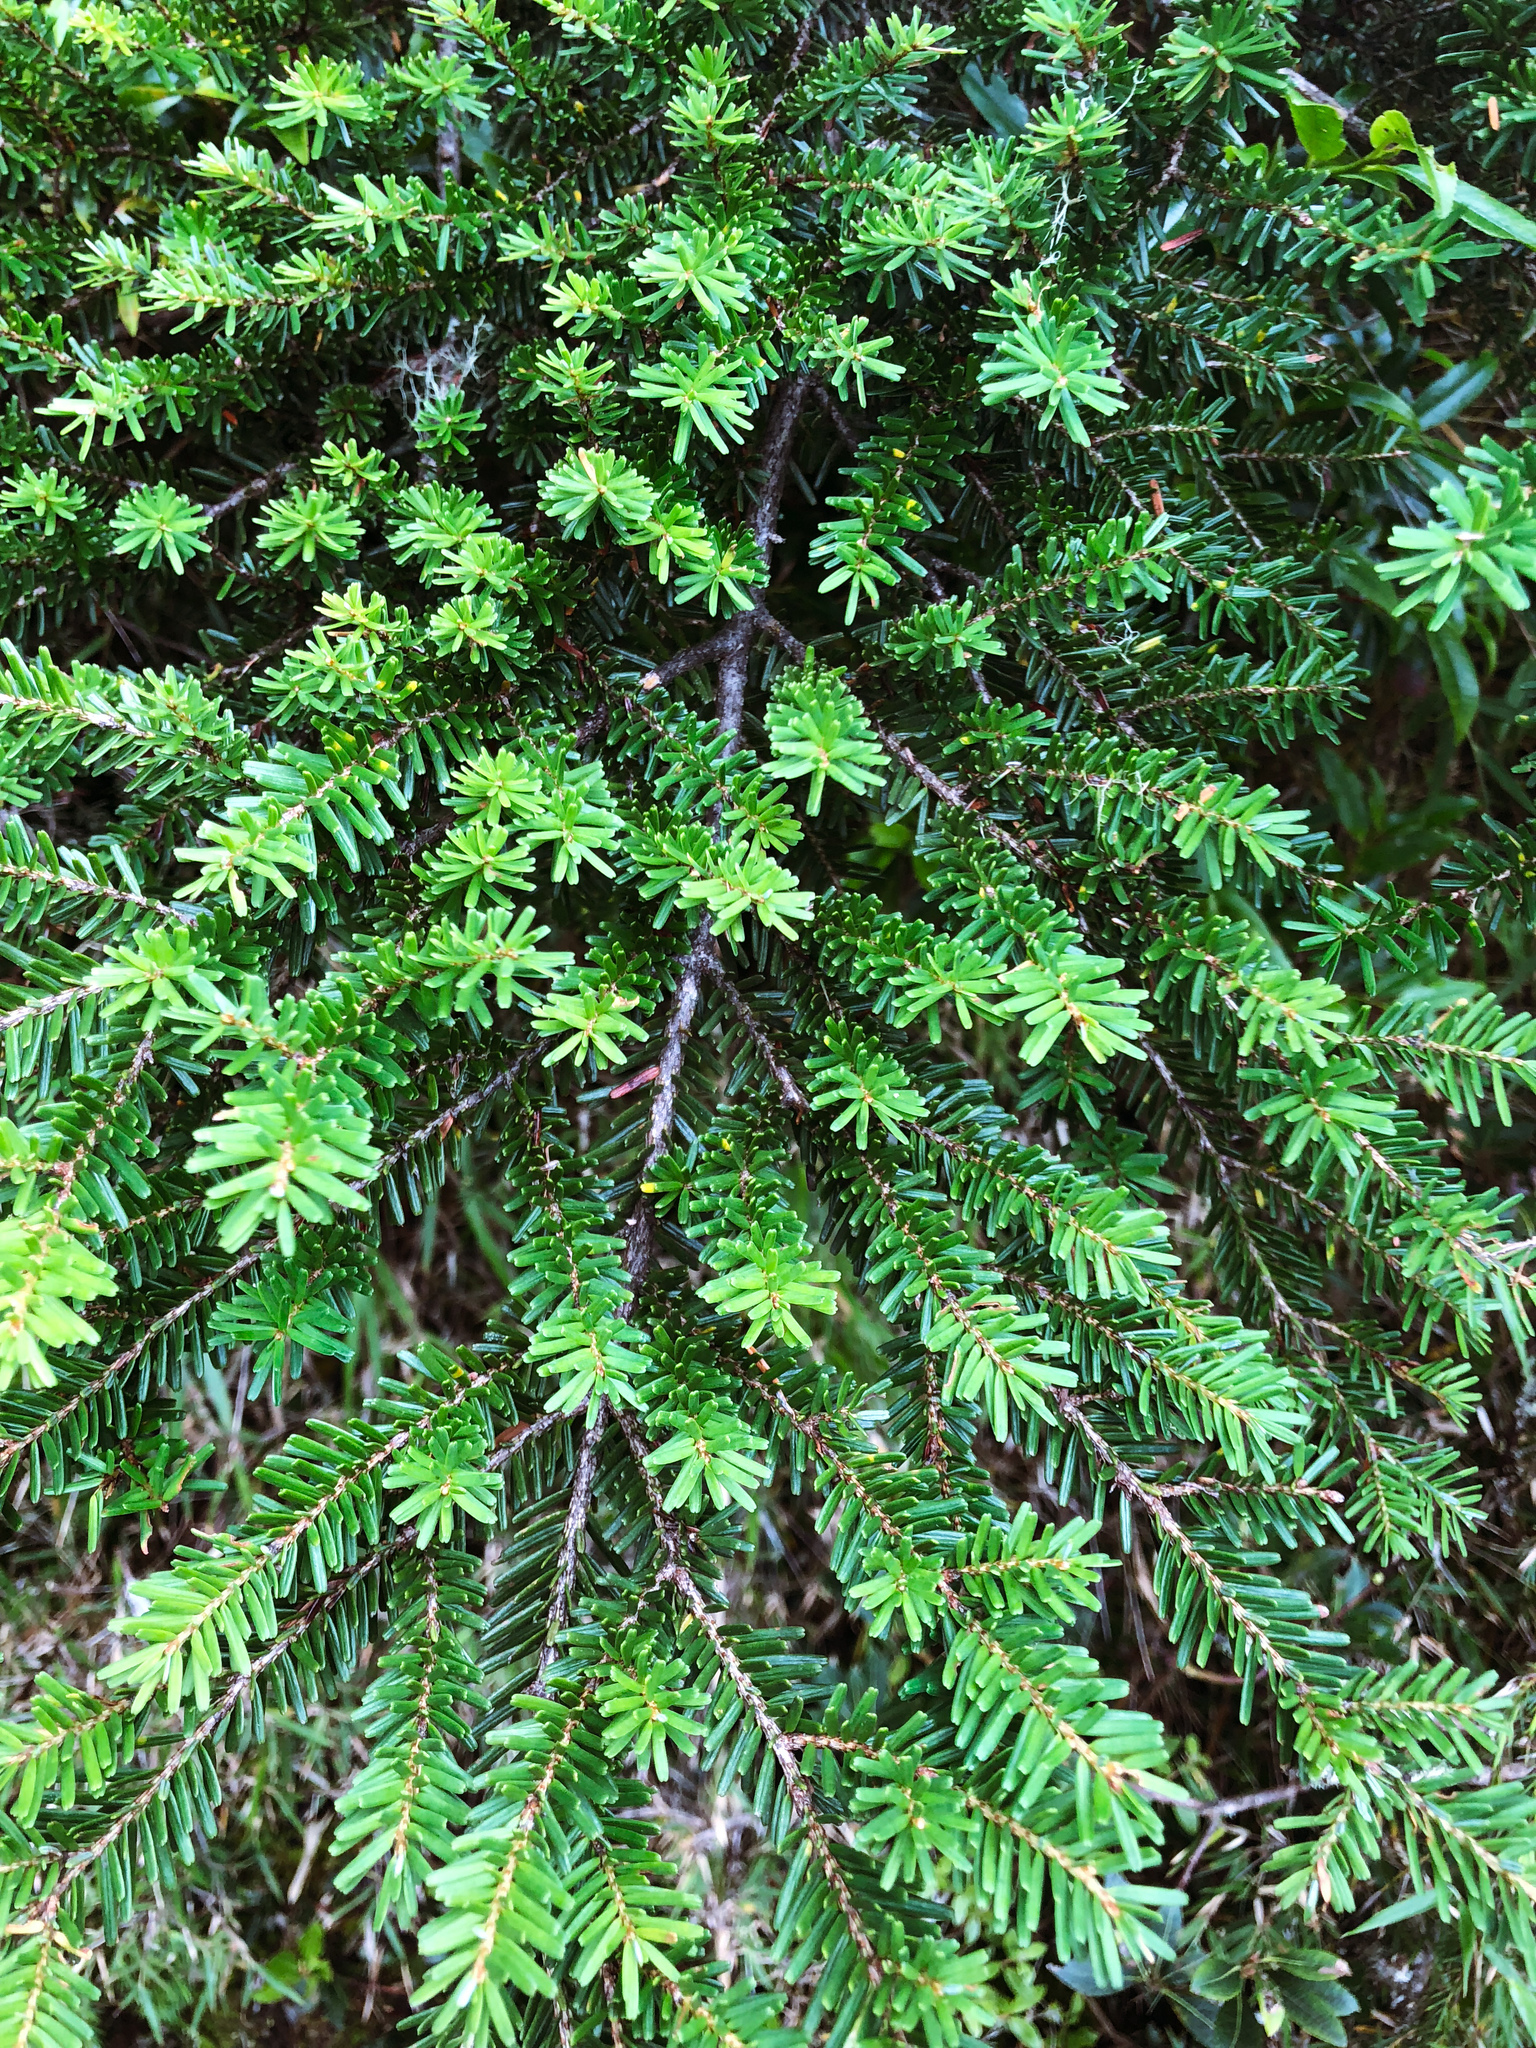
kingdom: Plantae
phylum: Tracheophyta
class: Pinopsida
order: Pinales
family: Pinaceae
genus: Tsuga
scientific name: Tsuga chinensis
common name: Chinese hemlock
